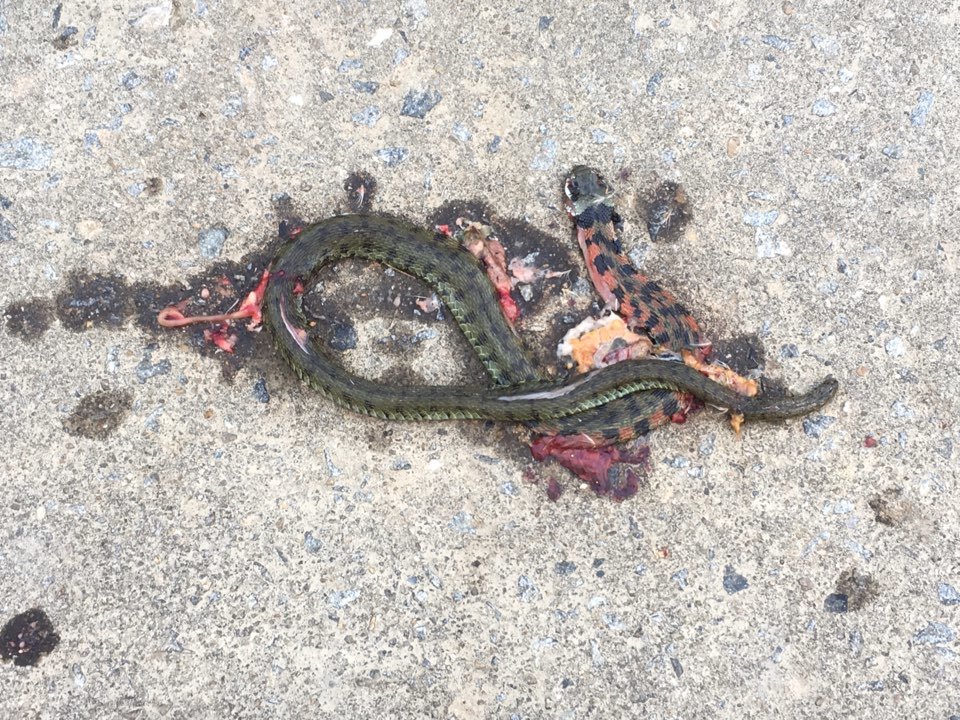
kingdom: Animalia
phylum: Chordata
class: Squamata
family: Colubridae
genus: Rhabdophis
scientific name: Rhabdophis tigrinus
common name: Tiger keelback
